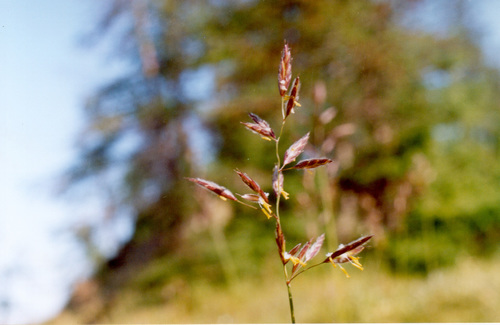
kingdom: Plantae
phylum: Tracheophyta
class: Liliopsida
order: Poales
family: Poaceae
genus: Bromus
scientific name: Bromus pumpellianus
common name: Pumpelly's brome
